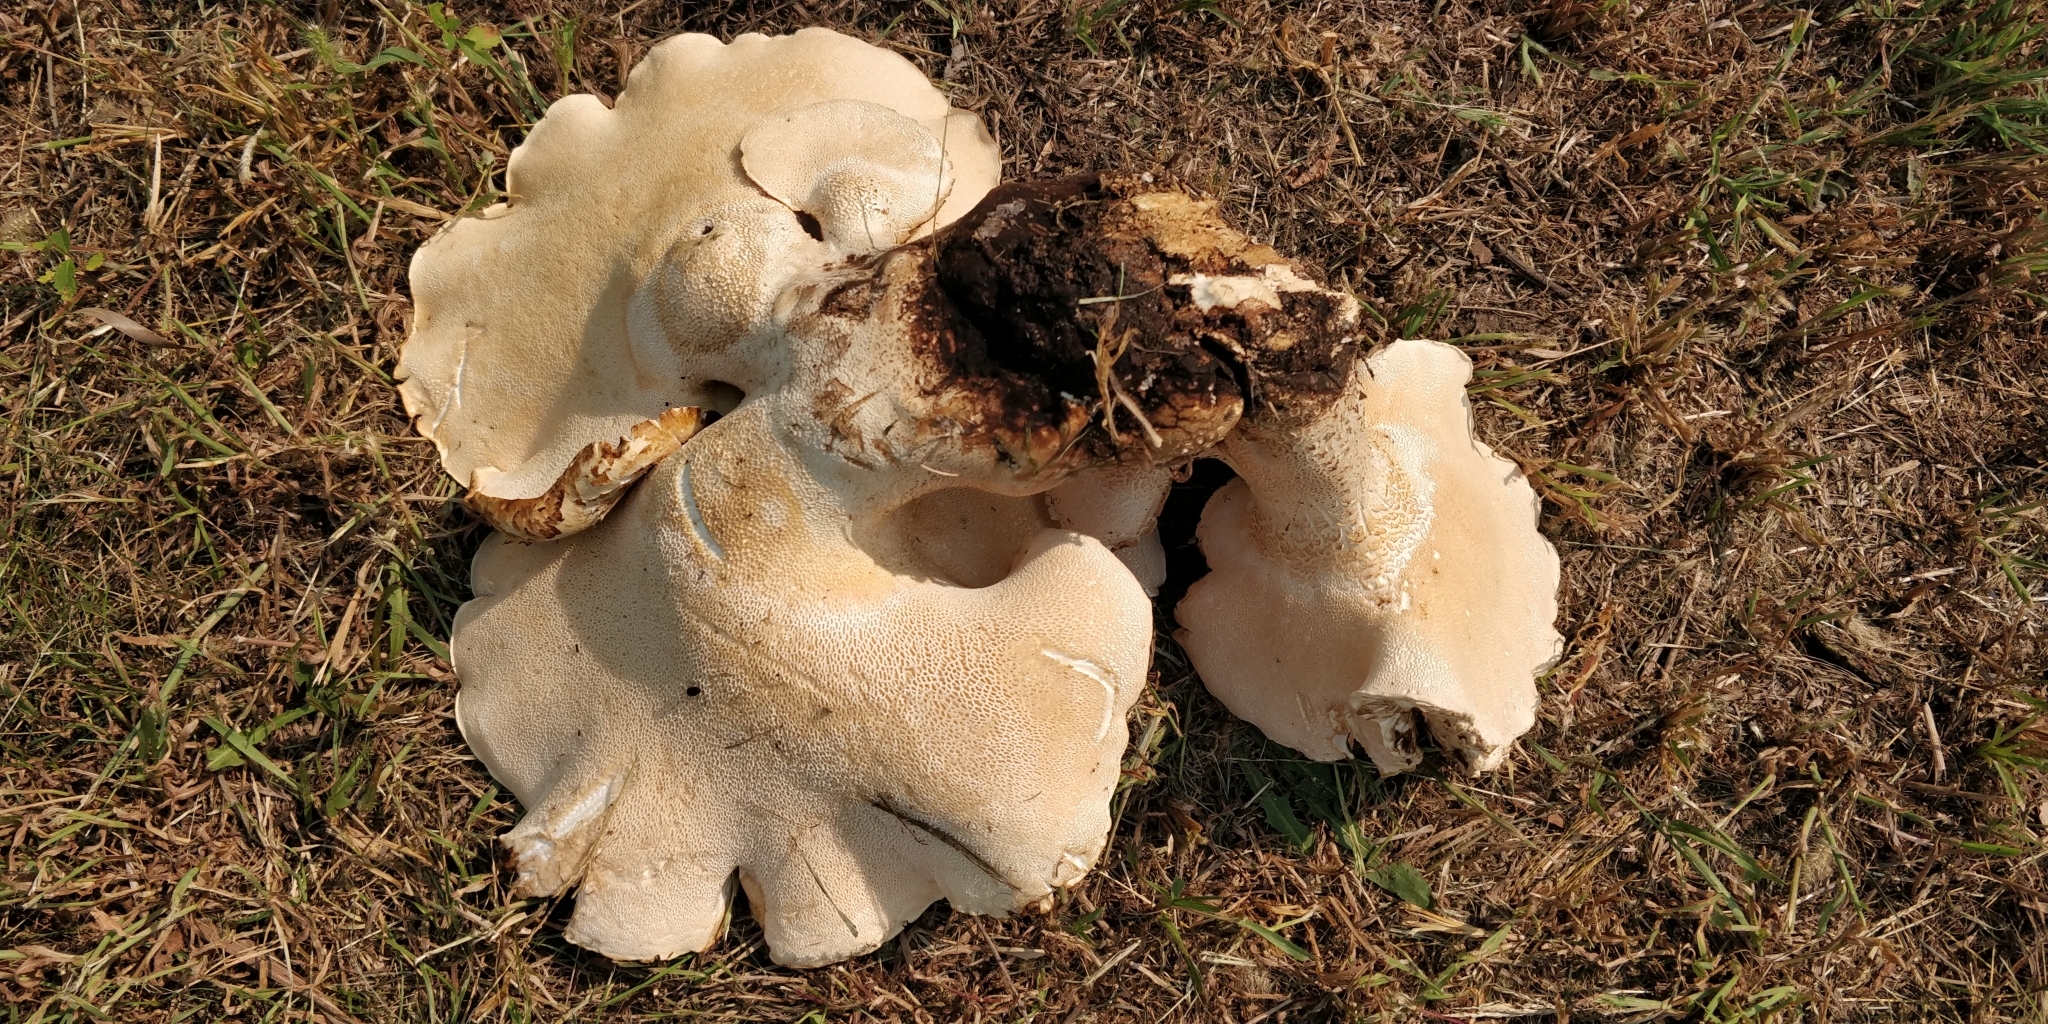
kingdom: Fungi
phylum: Basidiomycota
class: Agaricomycetes
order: Polyporales
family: Polyporaceae
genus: Cerioporus
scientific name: Cerioporus squamosus
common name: Dryad's saddle
